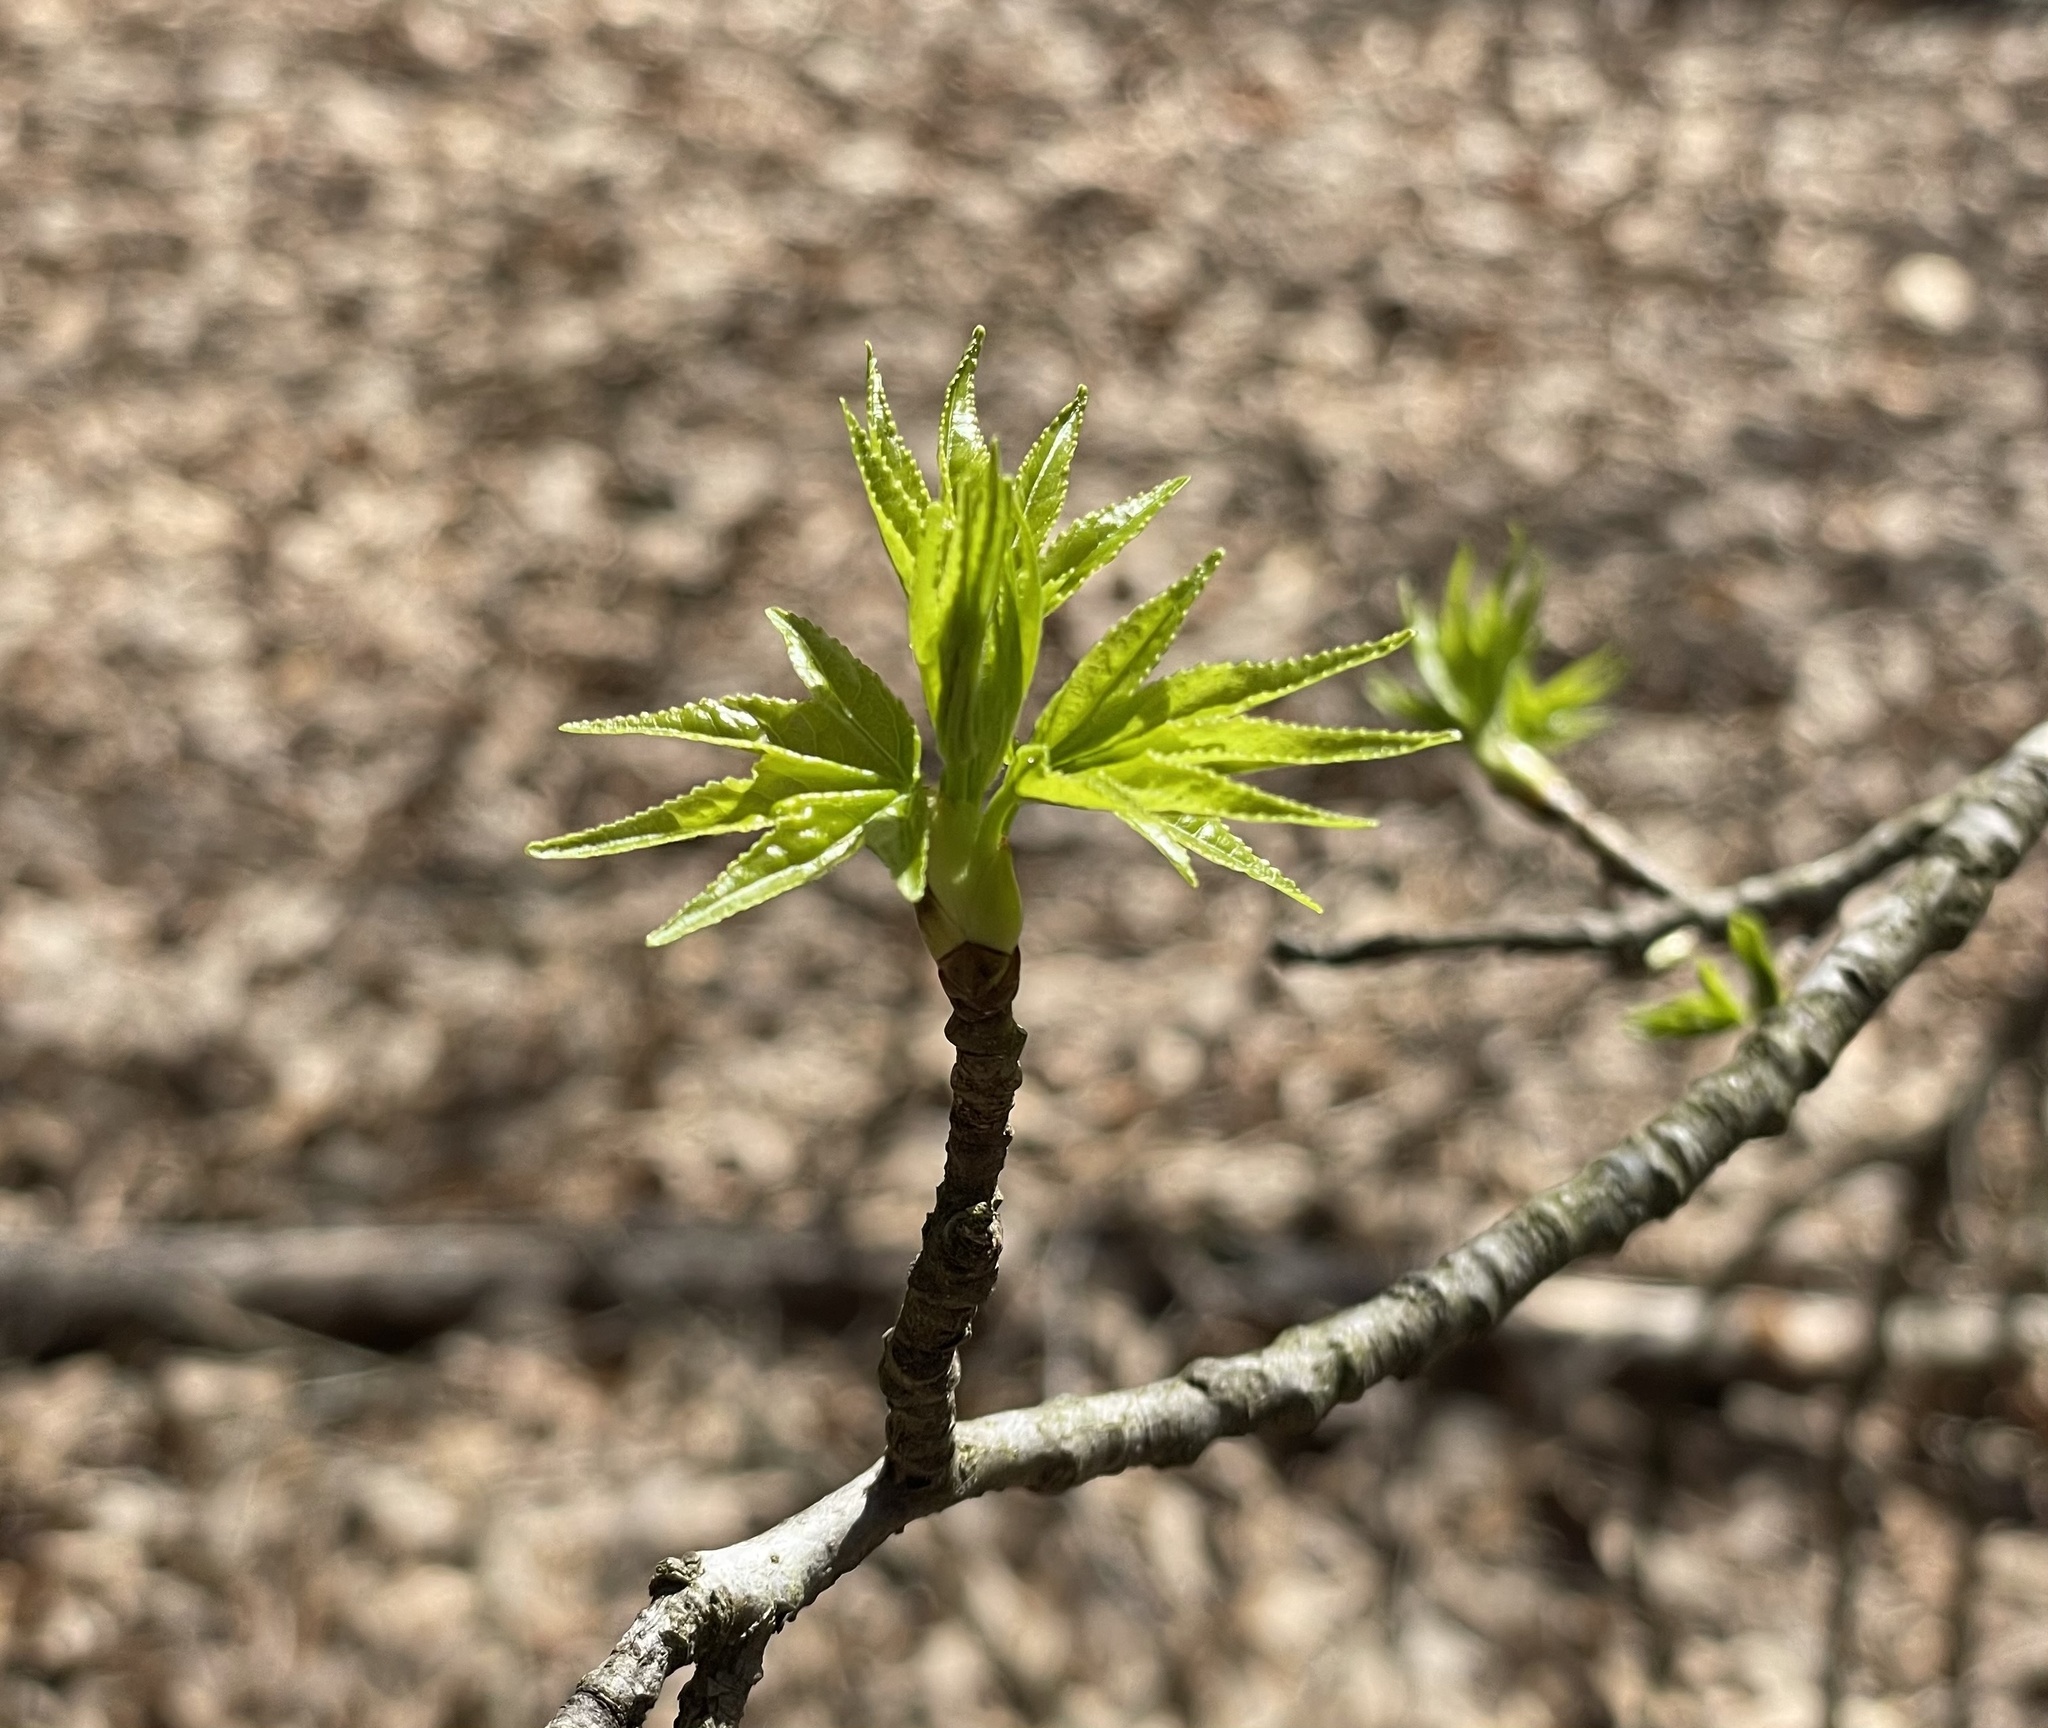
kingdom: Plantae
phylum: Tracheophyta
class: Magnoliopsida
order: Saxifragales
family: Altingiaceae
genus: Liquidambar
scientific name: Liquidambar styraciflua
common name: Sweet gum
